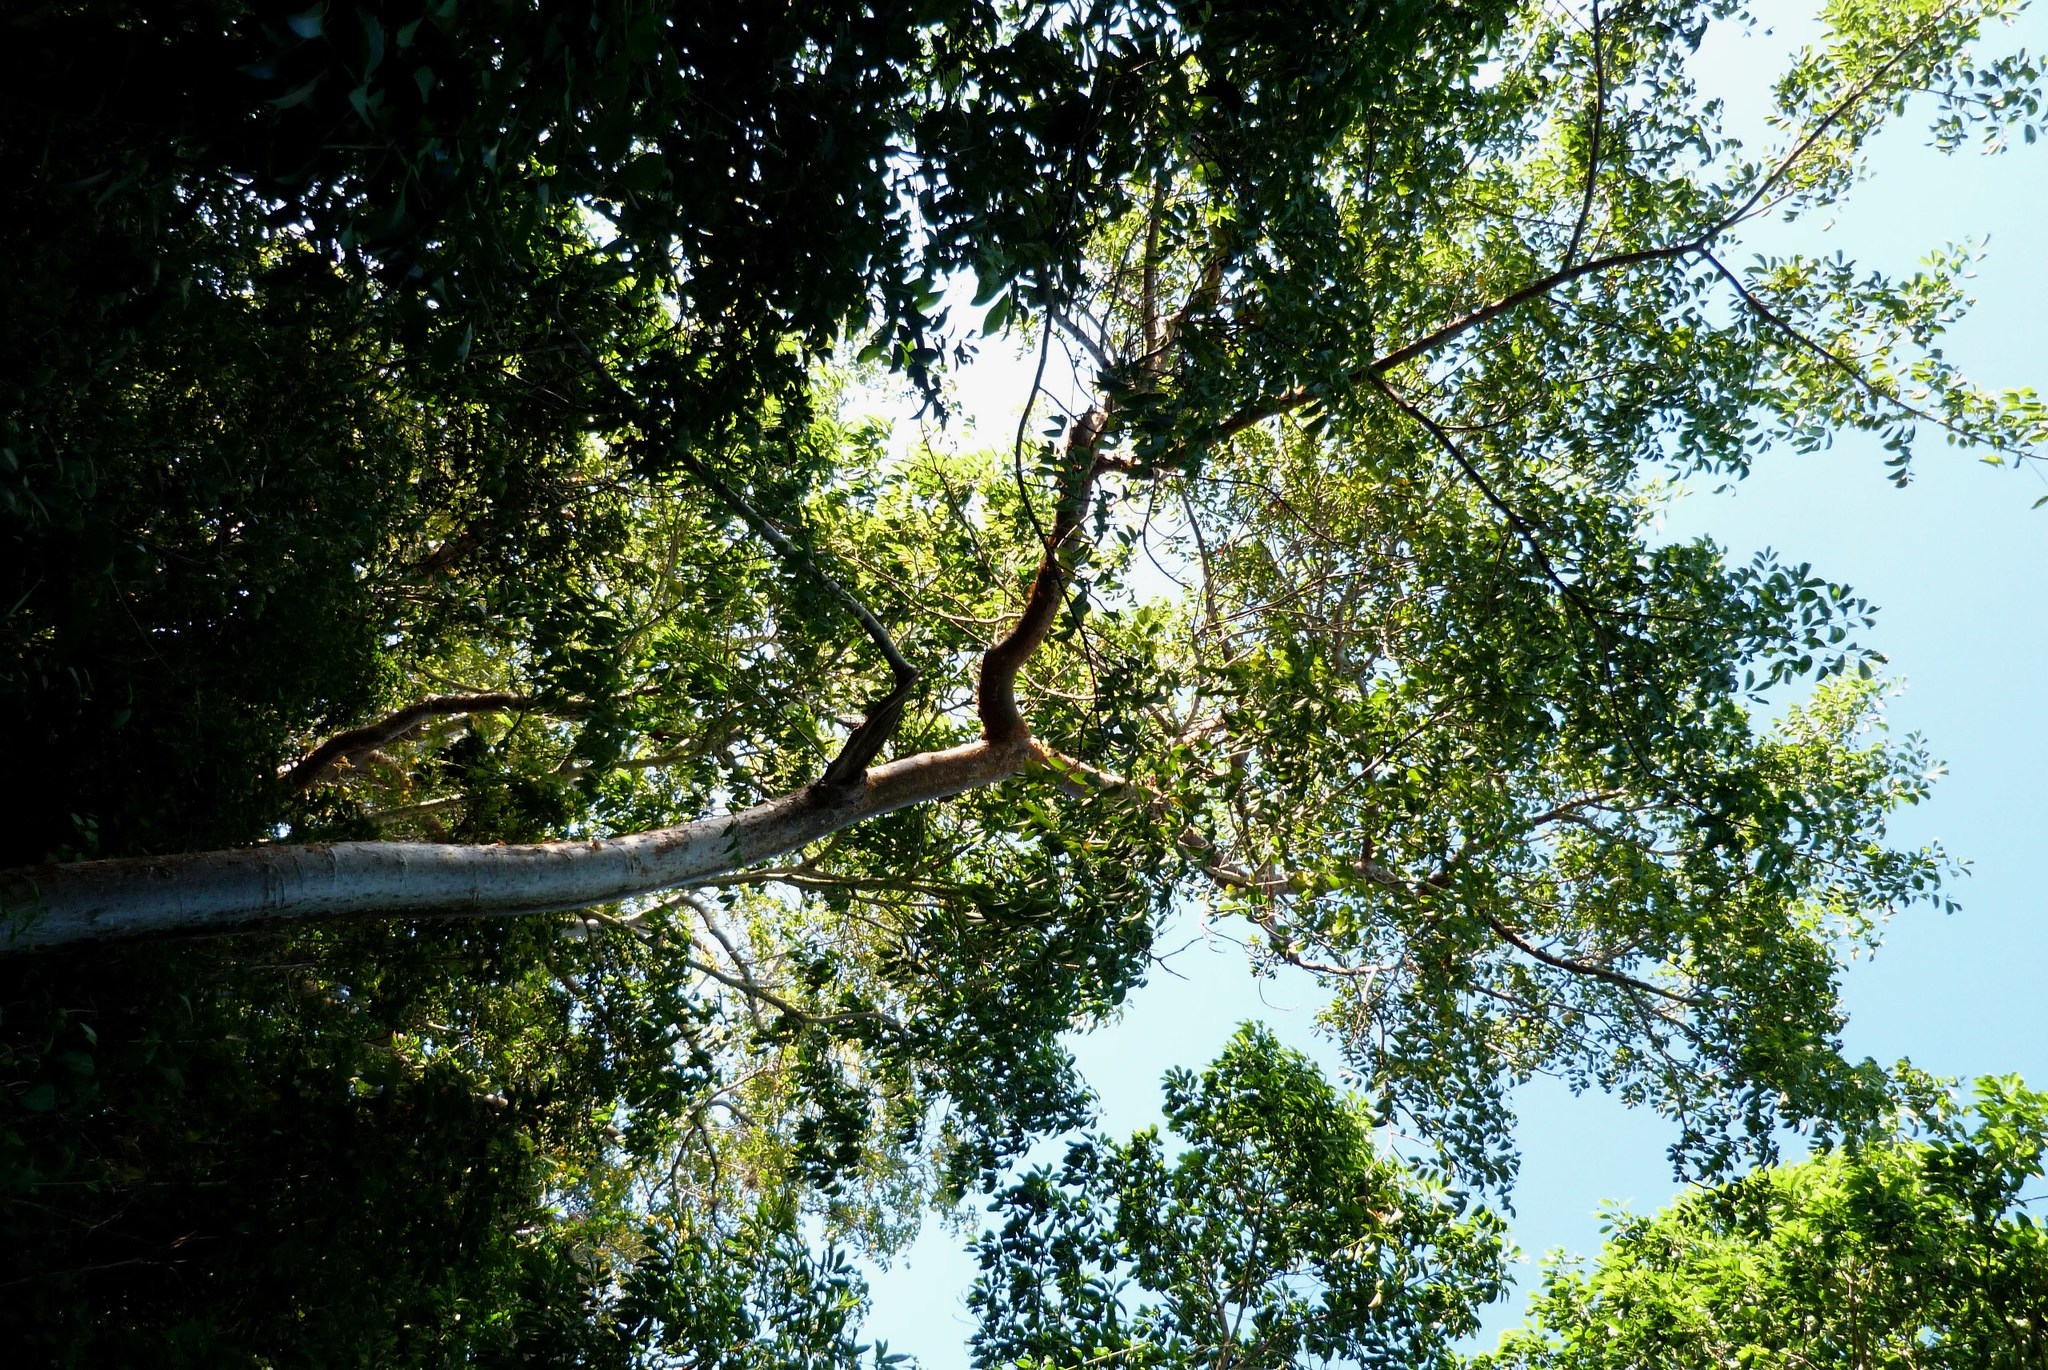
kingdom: Plantae
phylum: Tracheophyta
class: Magnoliopsida
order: Sapindales
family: Burseraceae
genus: Bursera
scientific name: Bursera simaruba
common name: Turpentine tree
